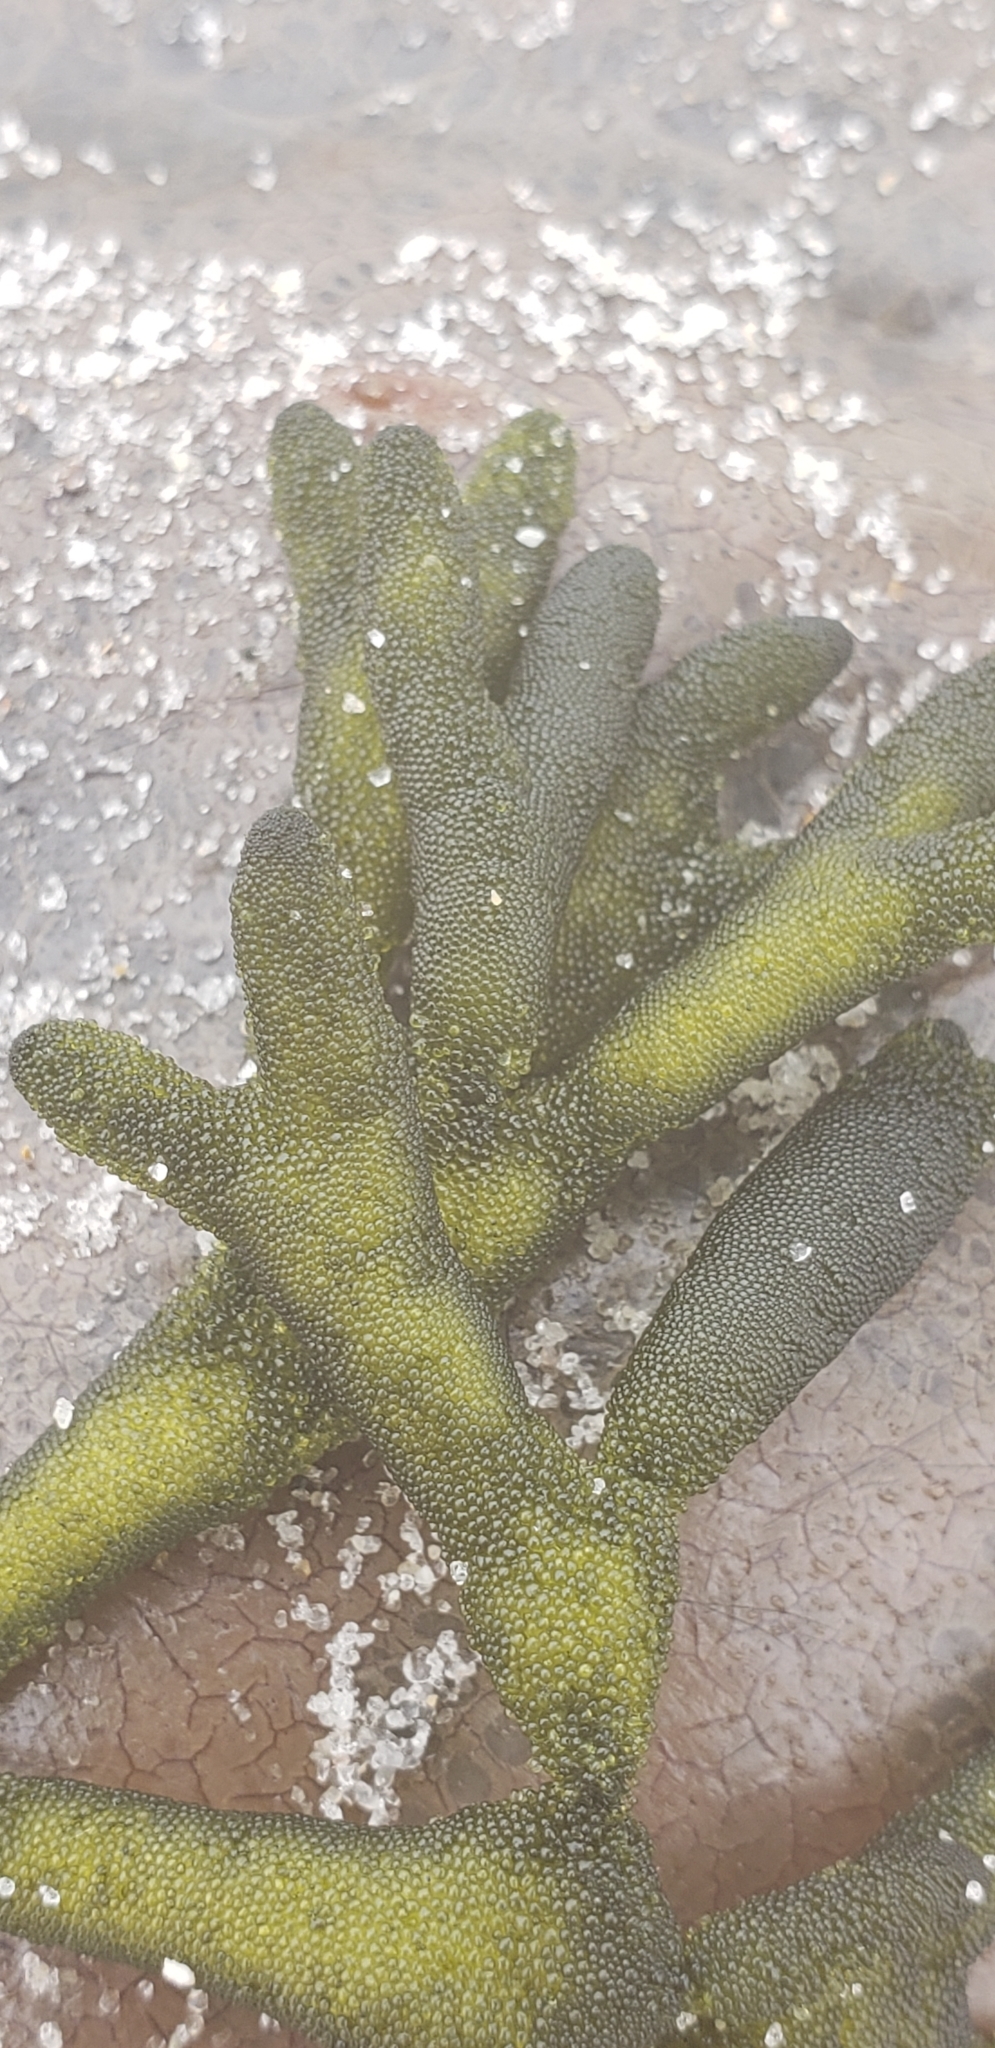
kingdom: Plantae
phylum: Chlorophyta
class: Ulvophyceae
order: Bryopsidales
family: Codiaceae
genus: Codium
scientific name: Codium fragile
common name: Dead man's fingers
